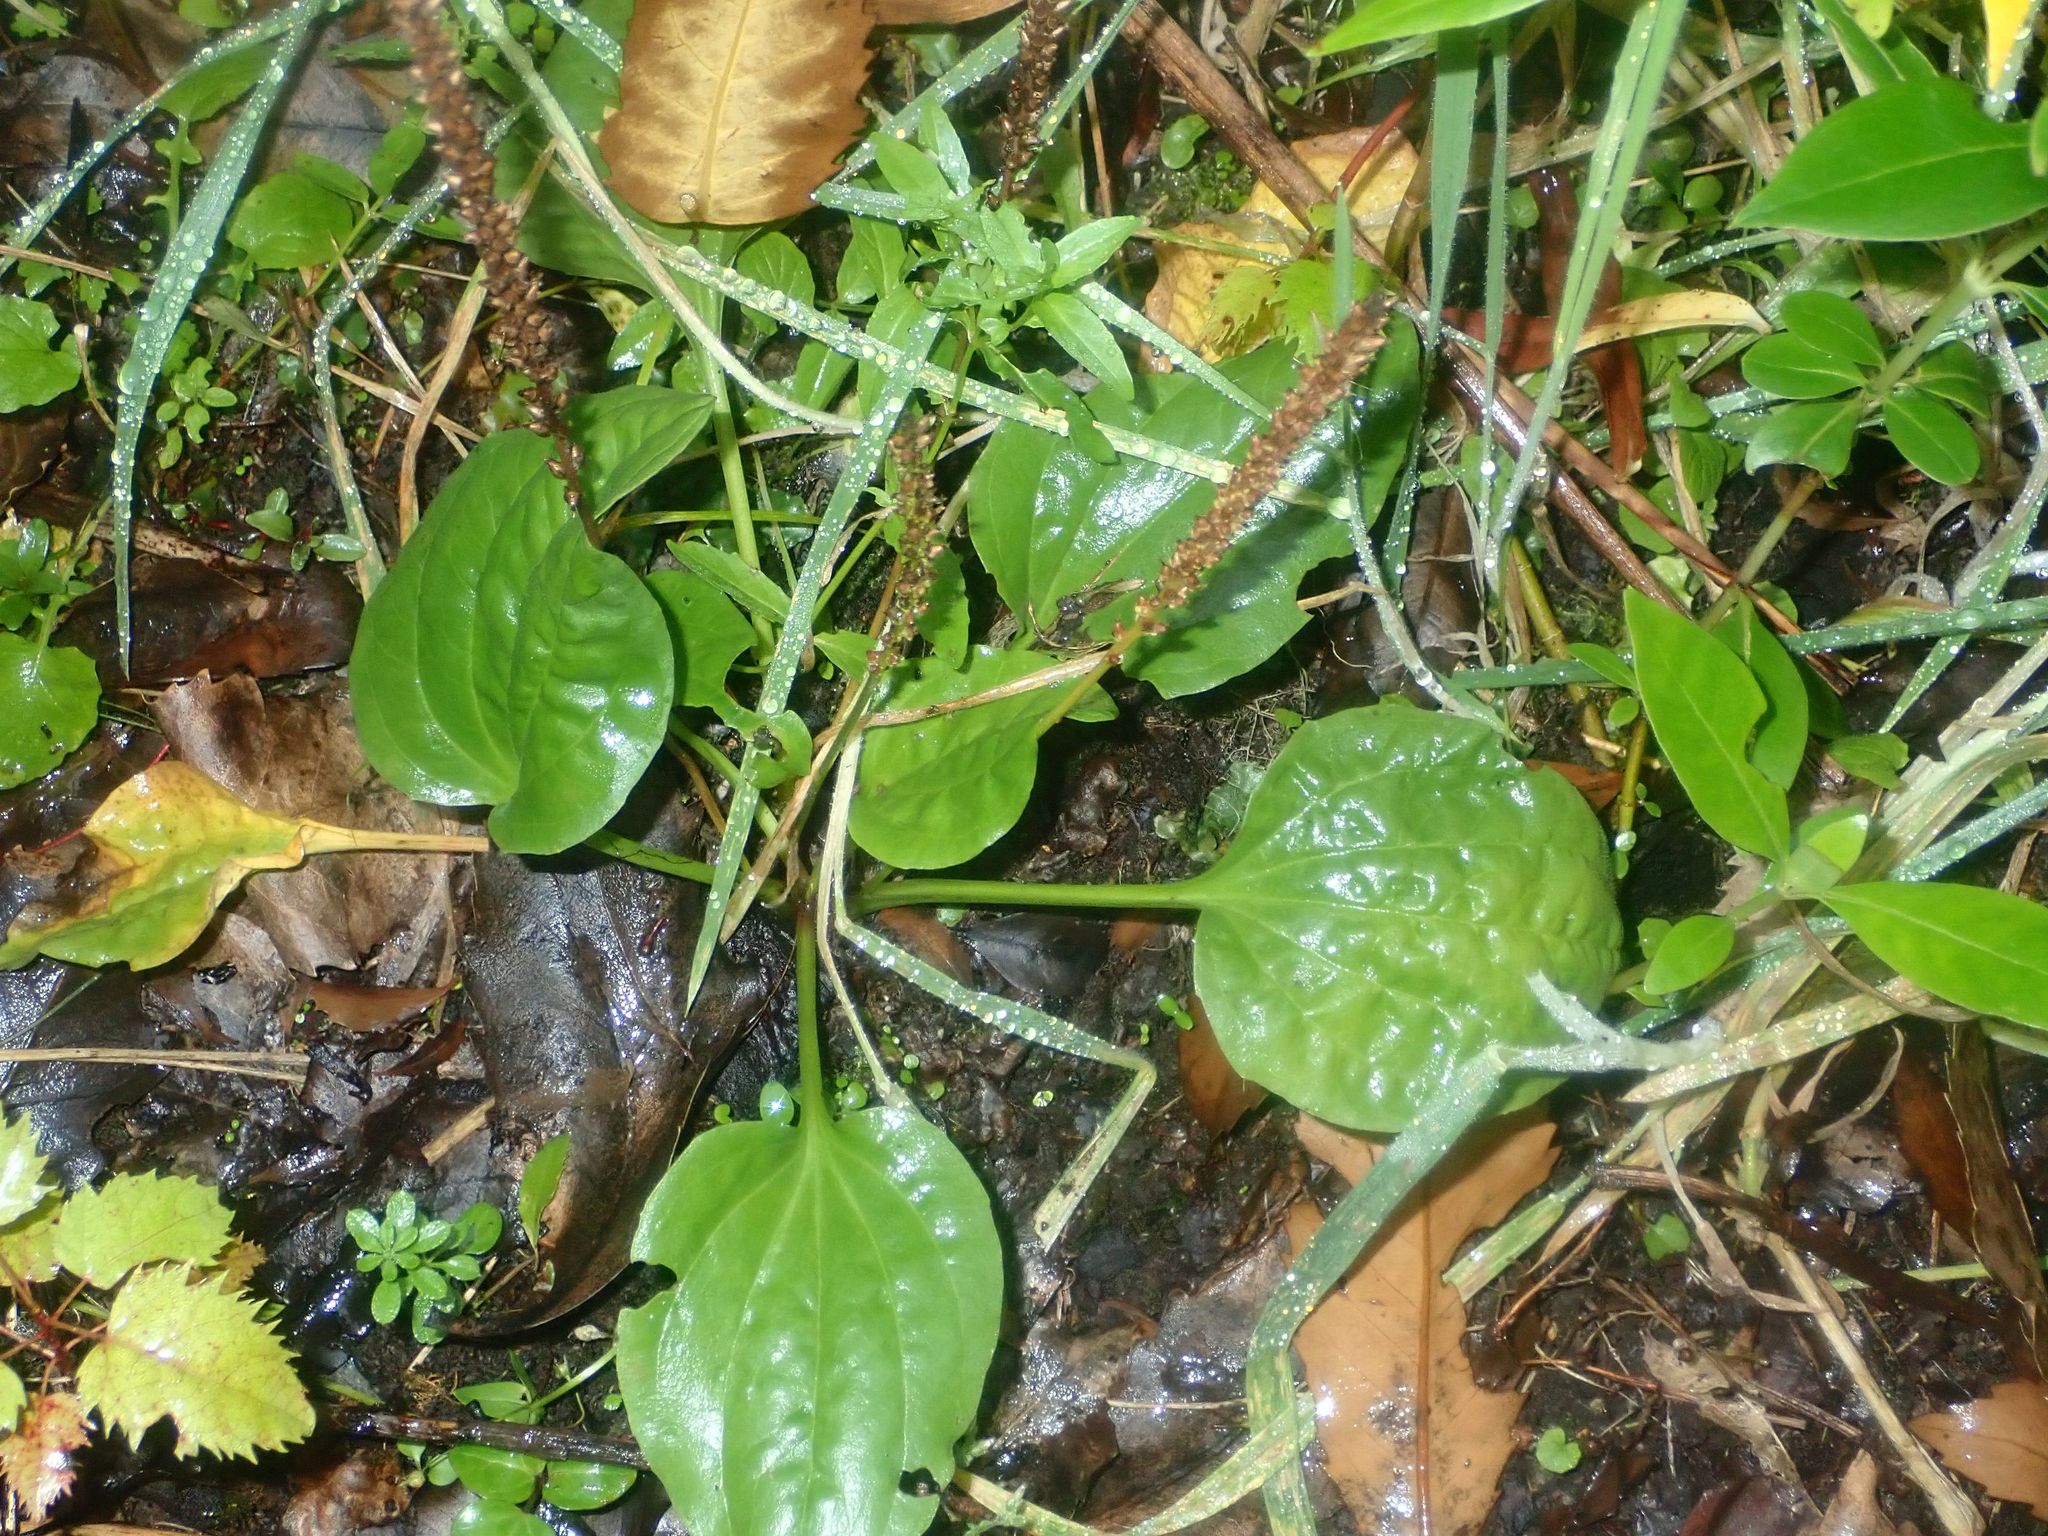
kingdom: Plantae
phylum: Tracheophyta
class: Magnoliopsida
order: Lamiales
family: Plantaginaceae
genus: Plantago
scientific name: Plantago major
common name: Common plantain
